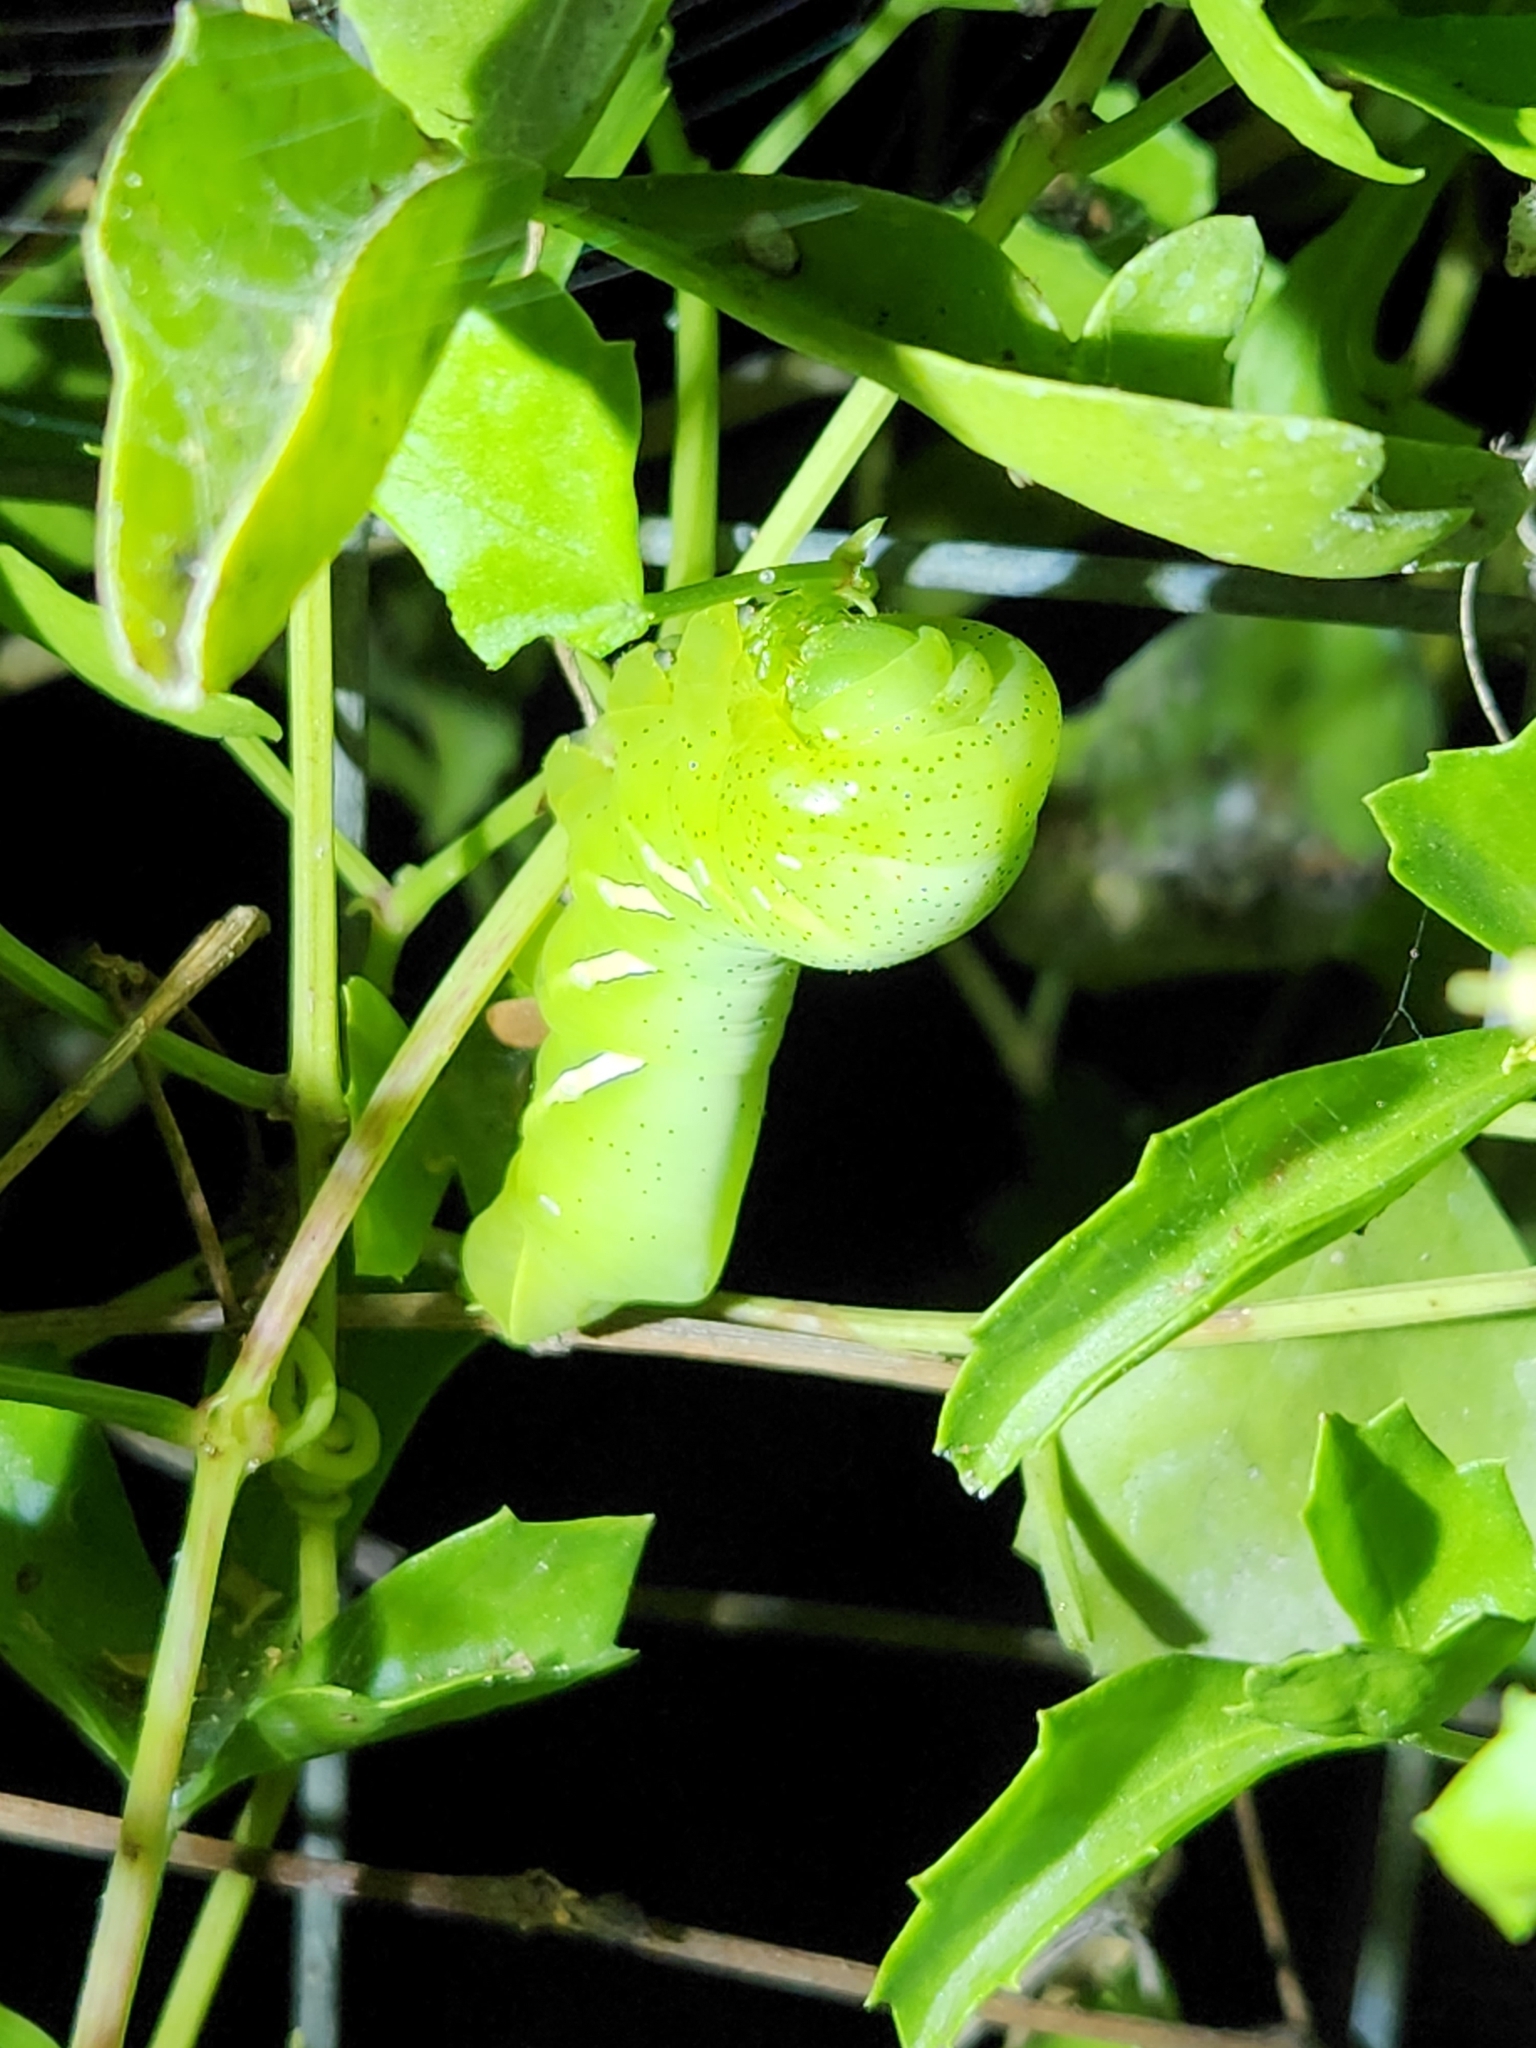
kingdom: Animalia
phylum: Arthropoda
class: Insecta
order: Lepidoptera
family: Sphingidae
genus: Eumorpha
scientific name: Eumorpha vitis
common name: Vine sphinx
